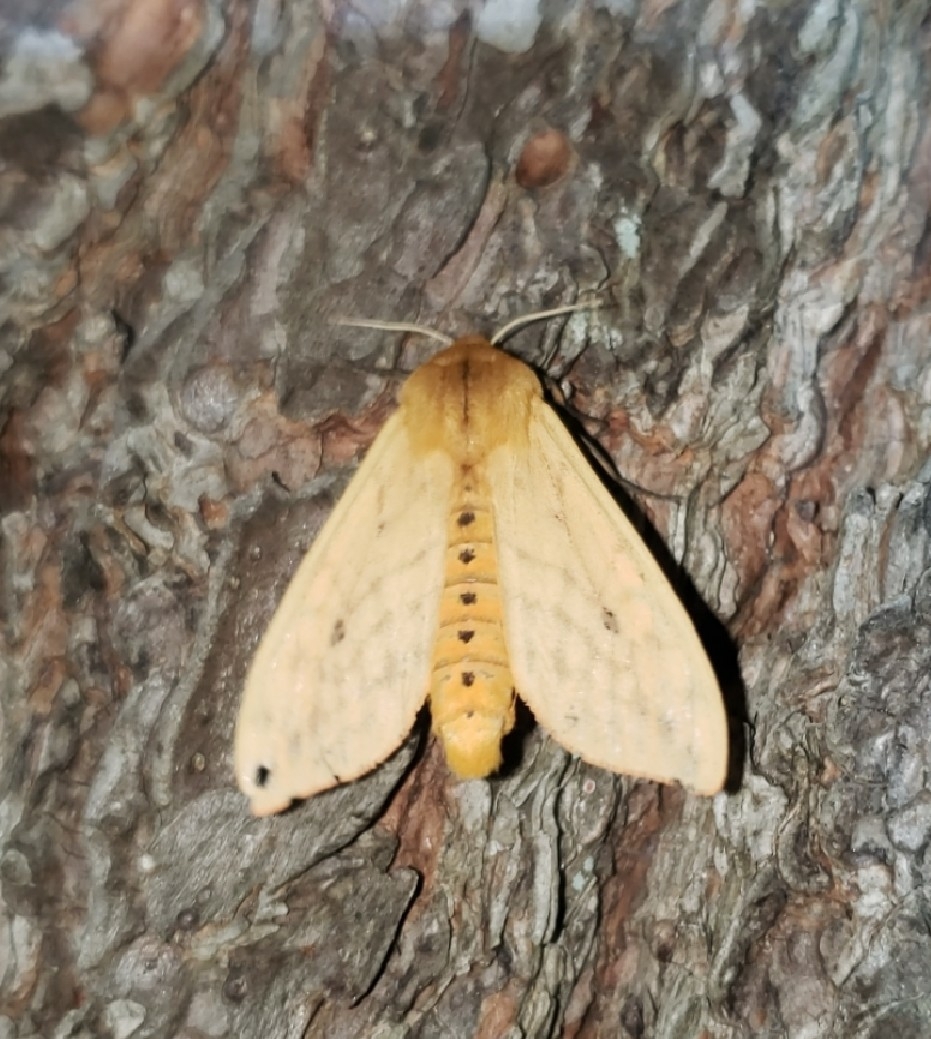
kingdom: Animalia
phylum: Arthropoda
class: Insecta
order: Lepidoptera
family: Erebidae
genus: Pyrrharctia
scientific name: Pyrrharctia isabella
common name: Isabella tiger moth
